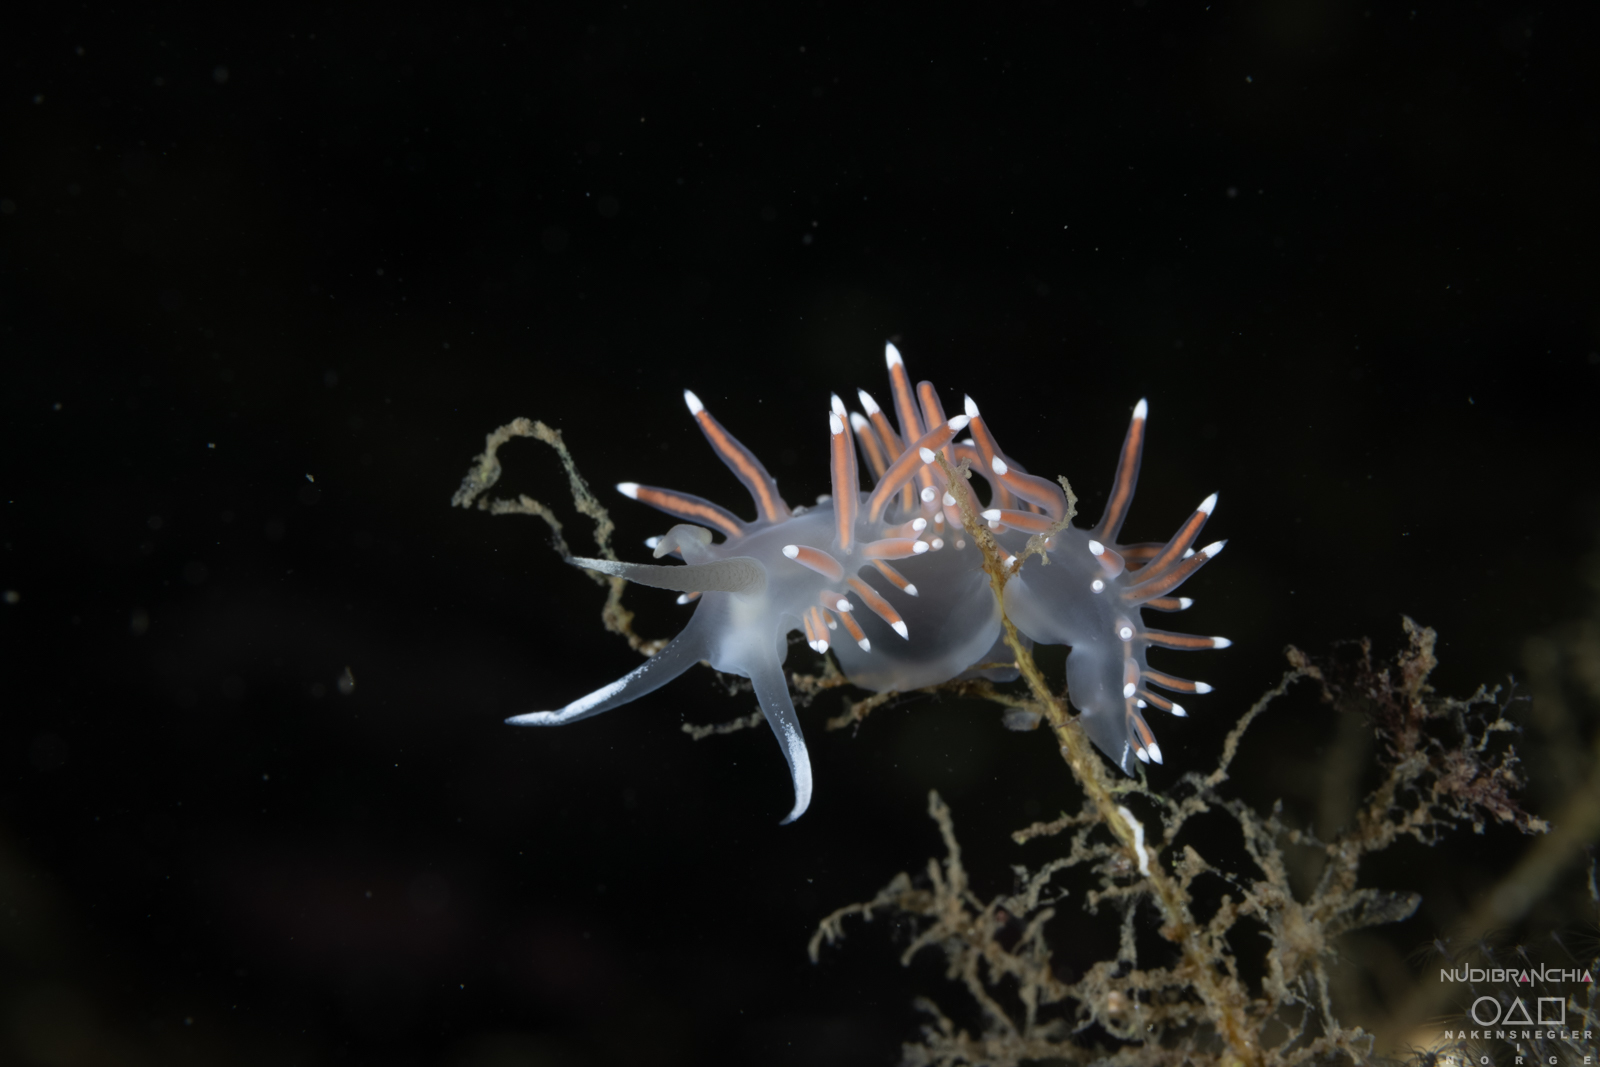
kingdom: Animalia
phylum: Mollusca
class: Gastropoda
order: Nudibranchia
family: Coryphellidae
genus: Coryphella
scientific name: Coryphella browni
